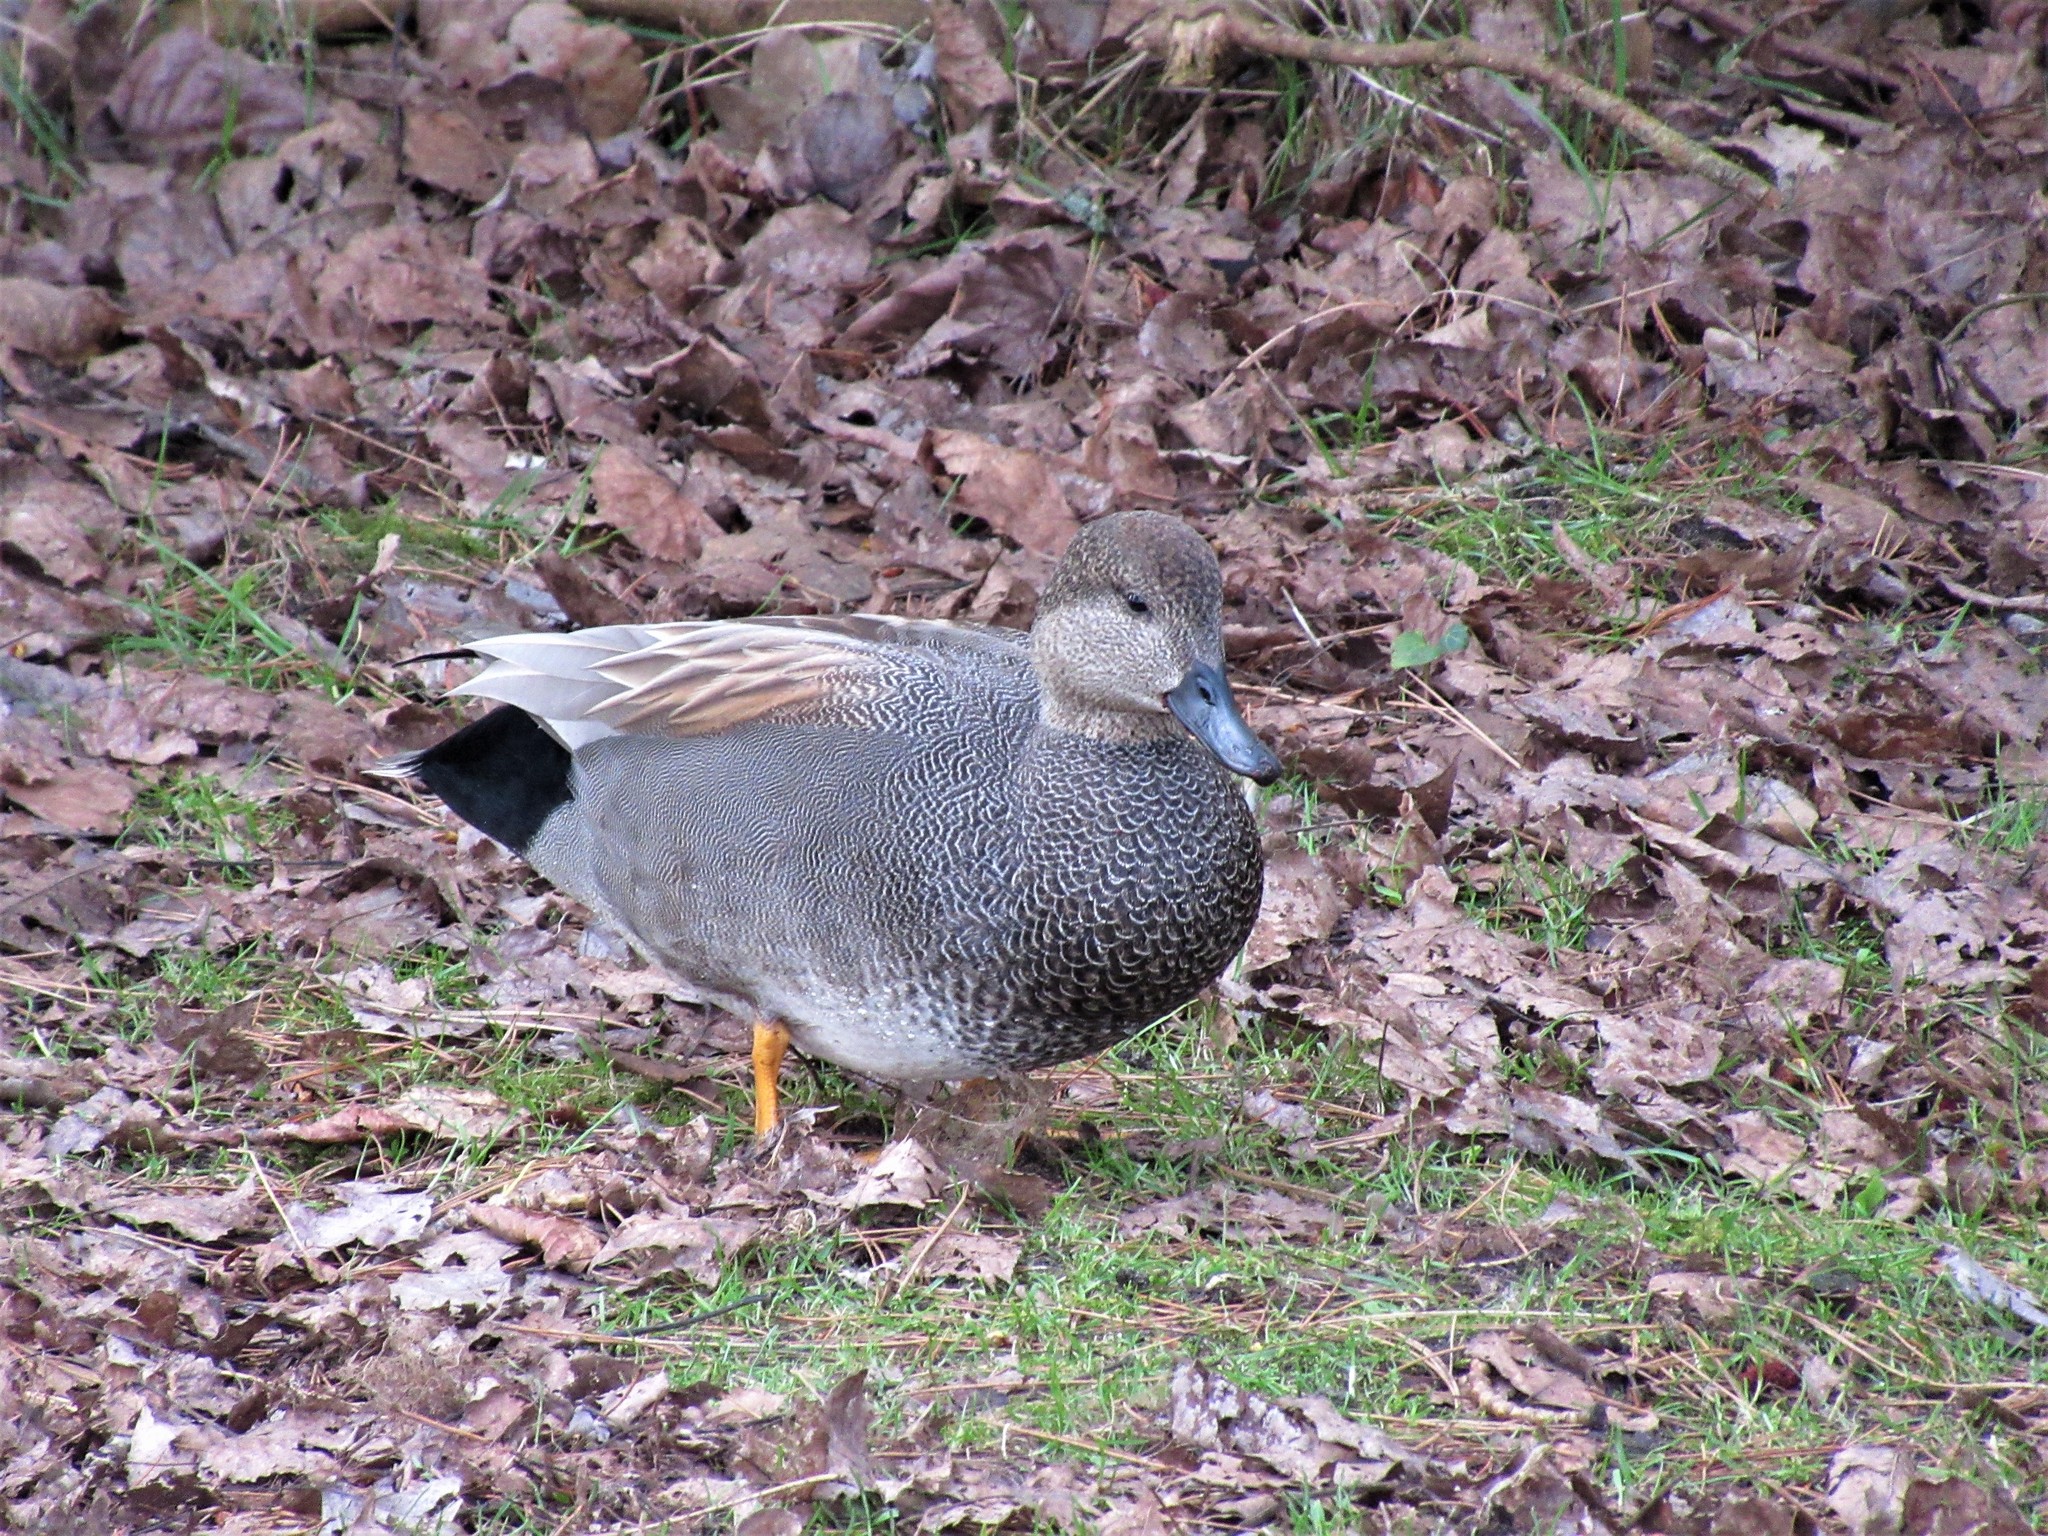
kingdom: Animalia
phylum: Chordata
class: Aves
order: Anseriformes
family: Anatidae
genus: Mareca
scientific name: Mareca strepera
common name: Gadwall
